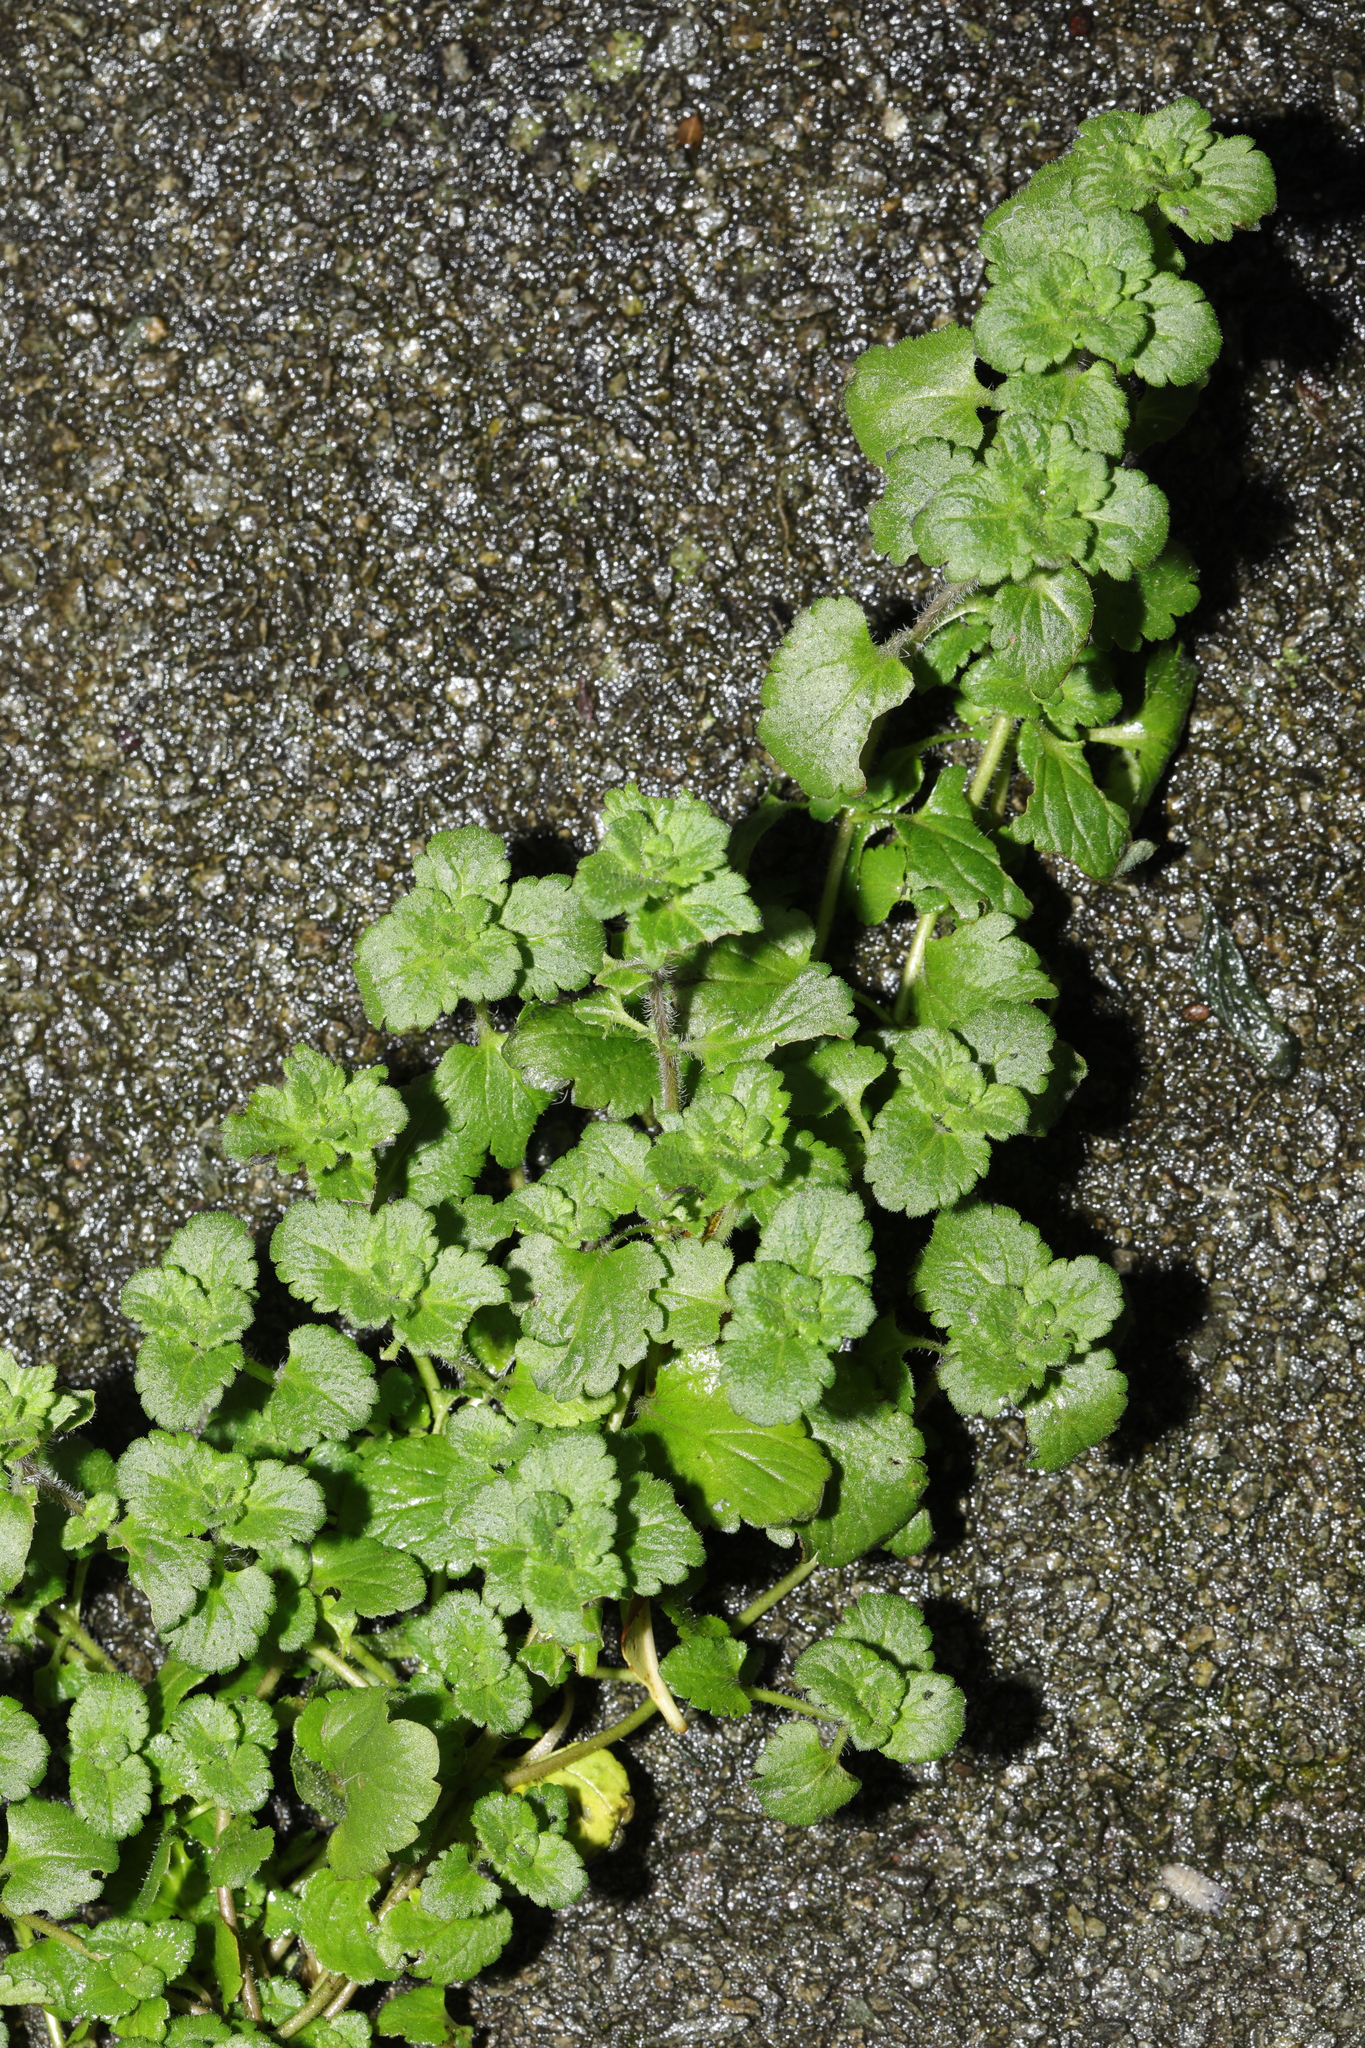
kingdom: Plantae
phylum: Tracheophyta
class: Magnoliopsida
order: Lamiales
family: Plantaginaceae
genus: Veronica
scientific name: Veronica persica
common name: Common field-speedwell
